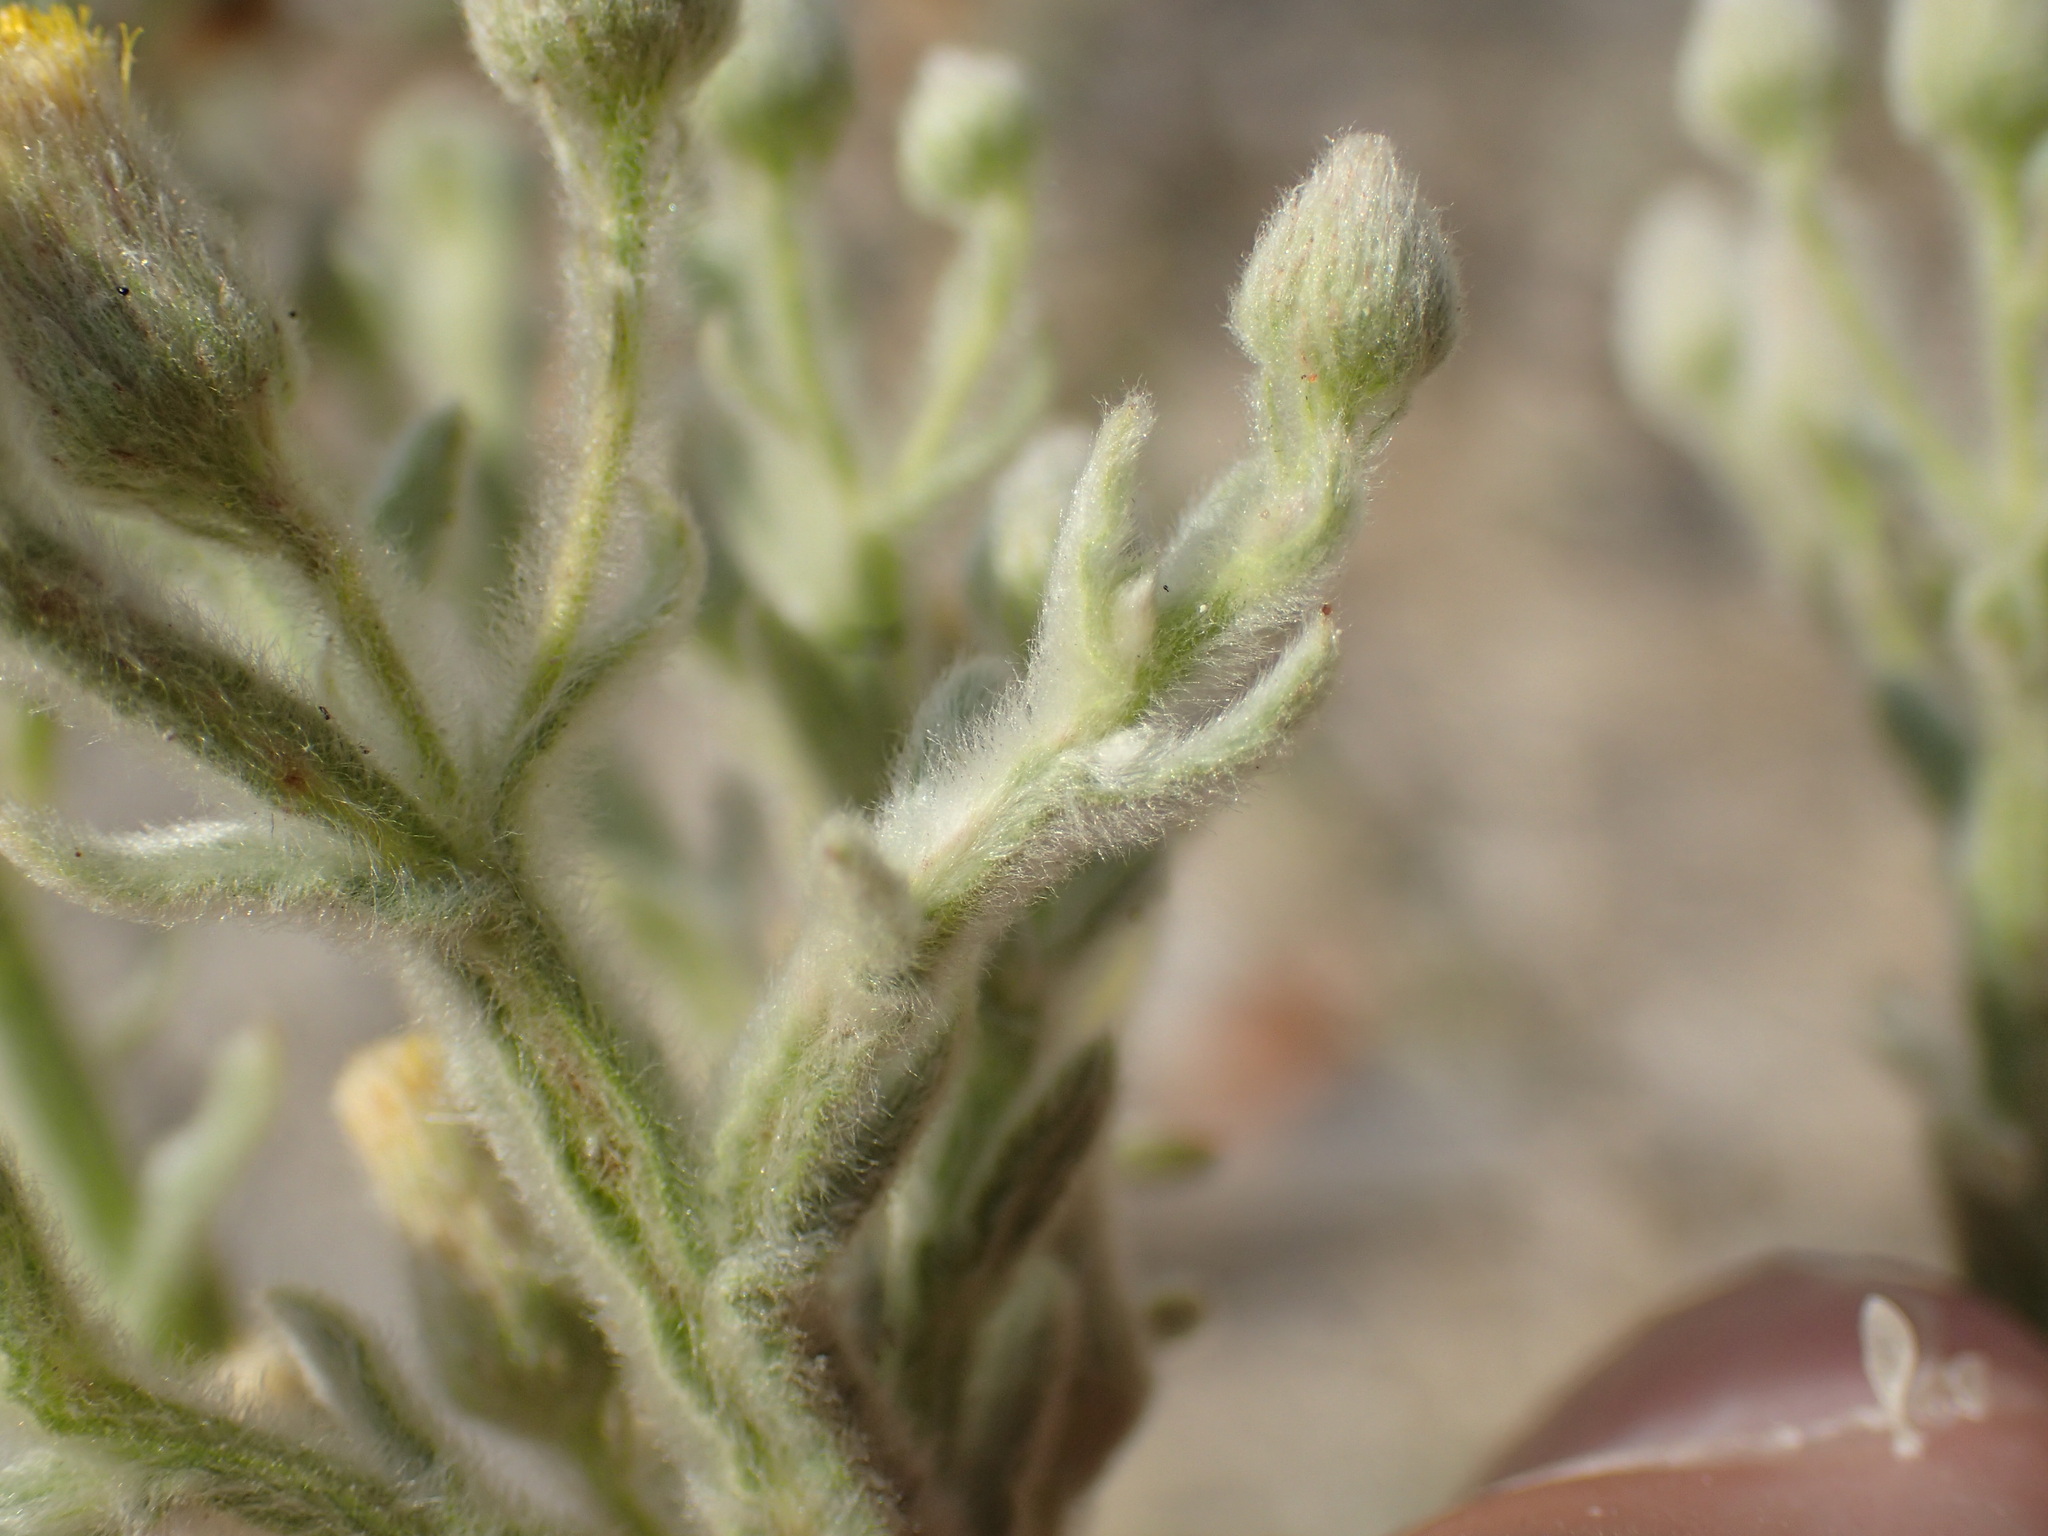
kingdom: Plantae
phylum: Tracheophyta
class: Magnoliopsida
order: Asterales
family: Asteraceae
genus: Galgera
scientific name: Galgera decurrens
